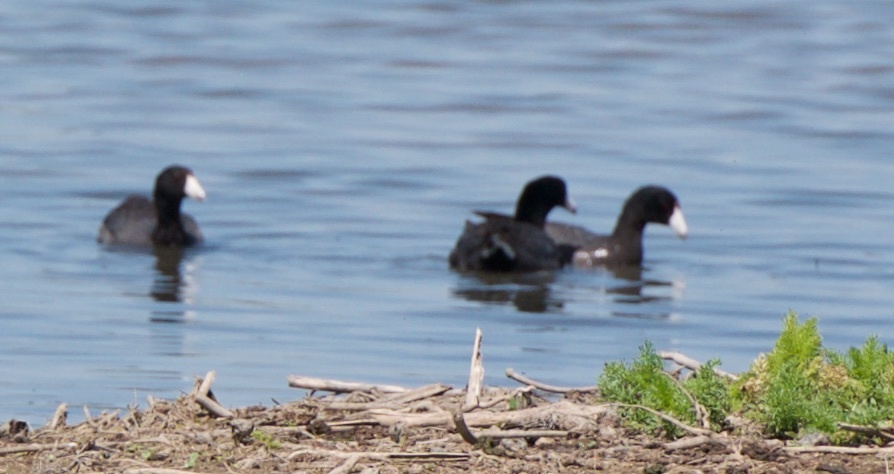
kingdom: Animalia
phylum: Chordata
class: Aves
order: Gruiformes
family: Rallidae
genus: Fulica
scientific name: Fulica americana
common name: American coot
